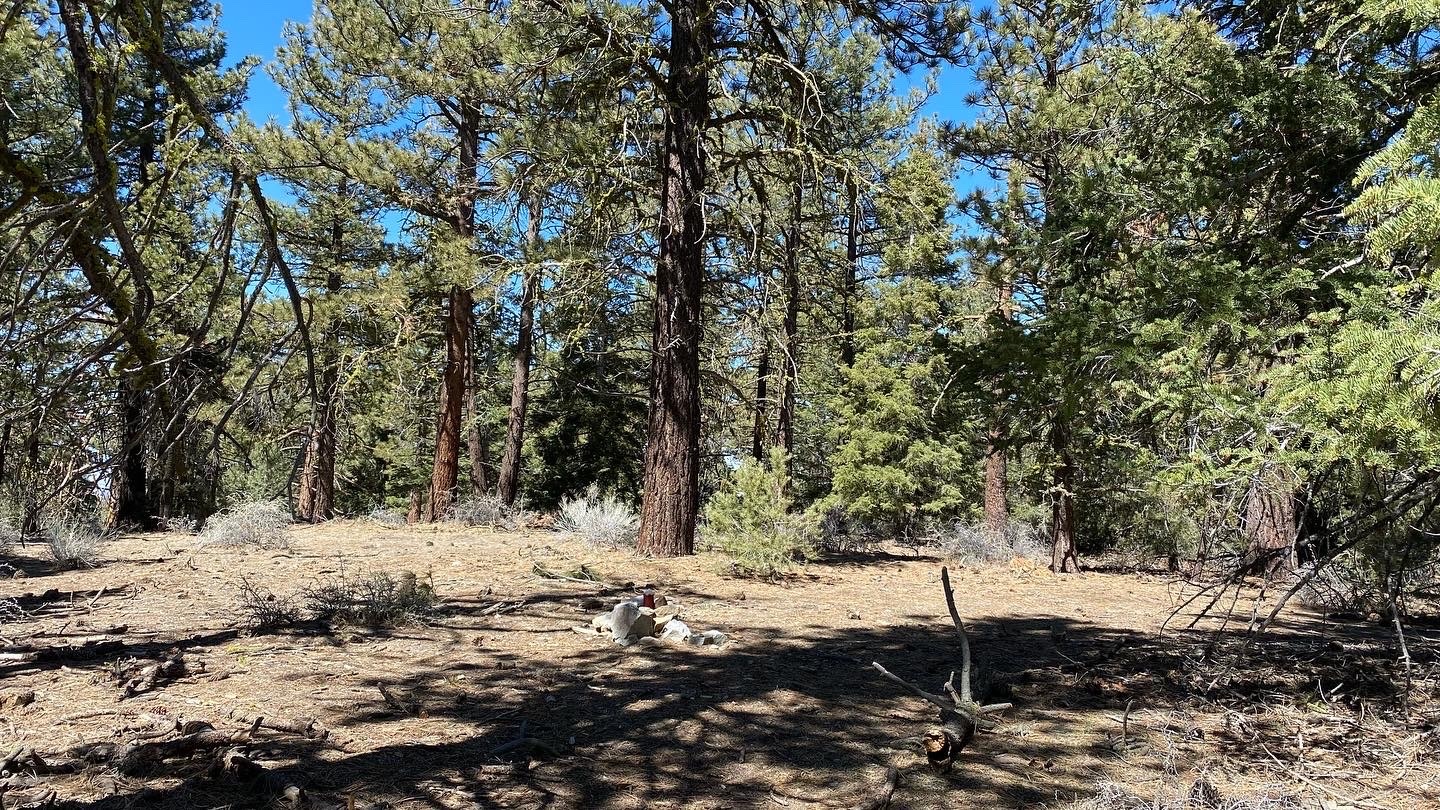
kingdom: Plantae
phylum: Tracheophyta
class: Pinopsida
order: Pinales
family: Pinaceae
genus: Abies
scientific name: Abies concolor
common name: Colorado fir
